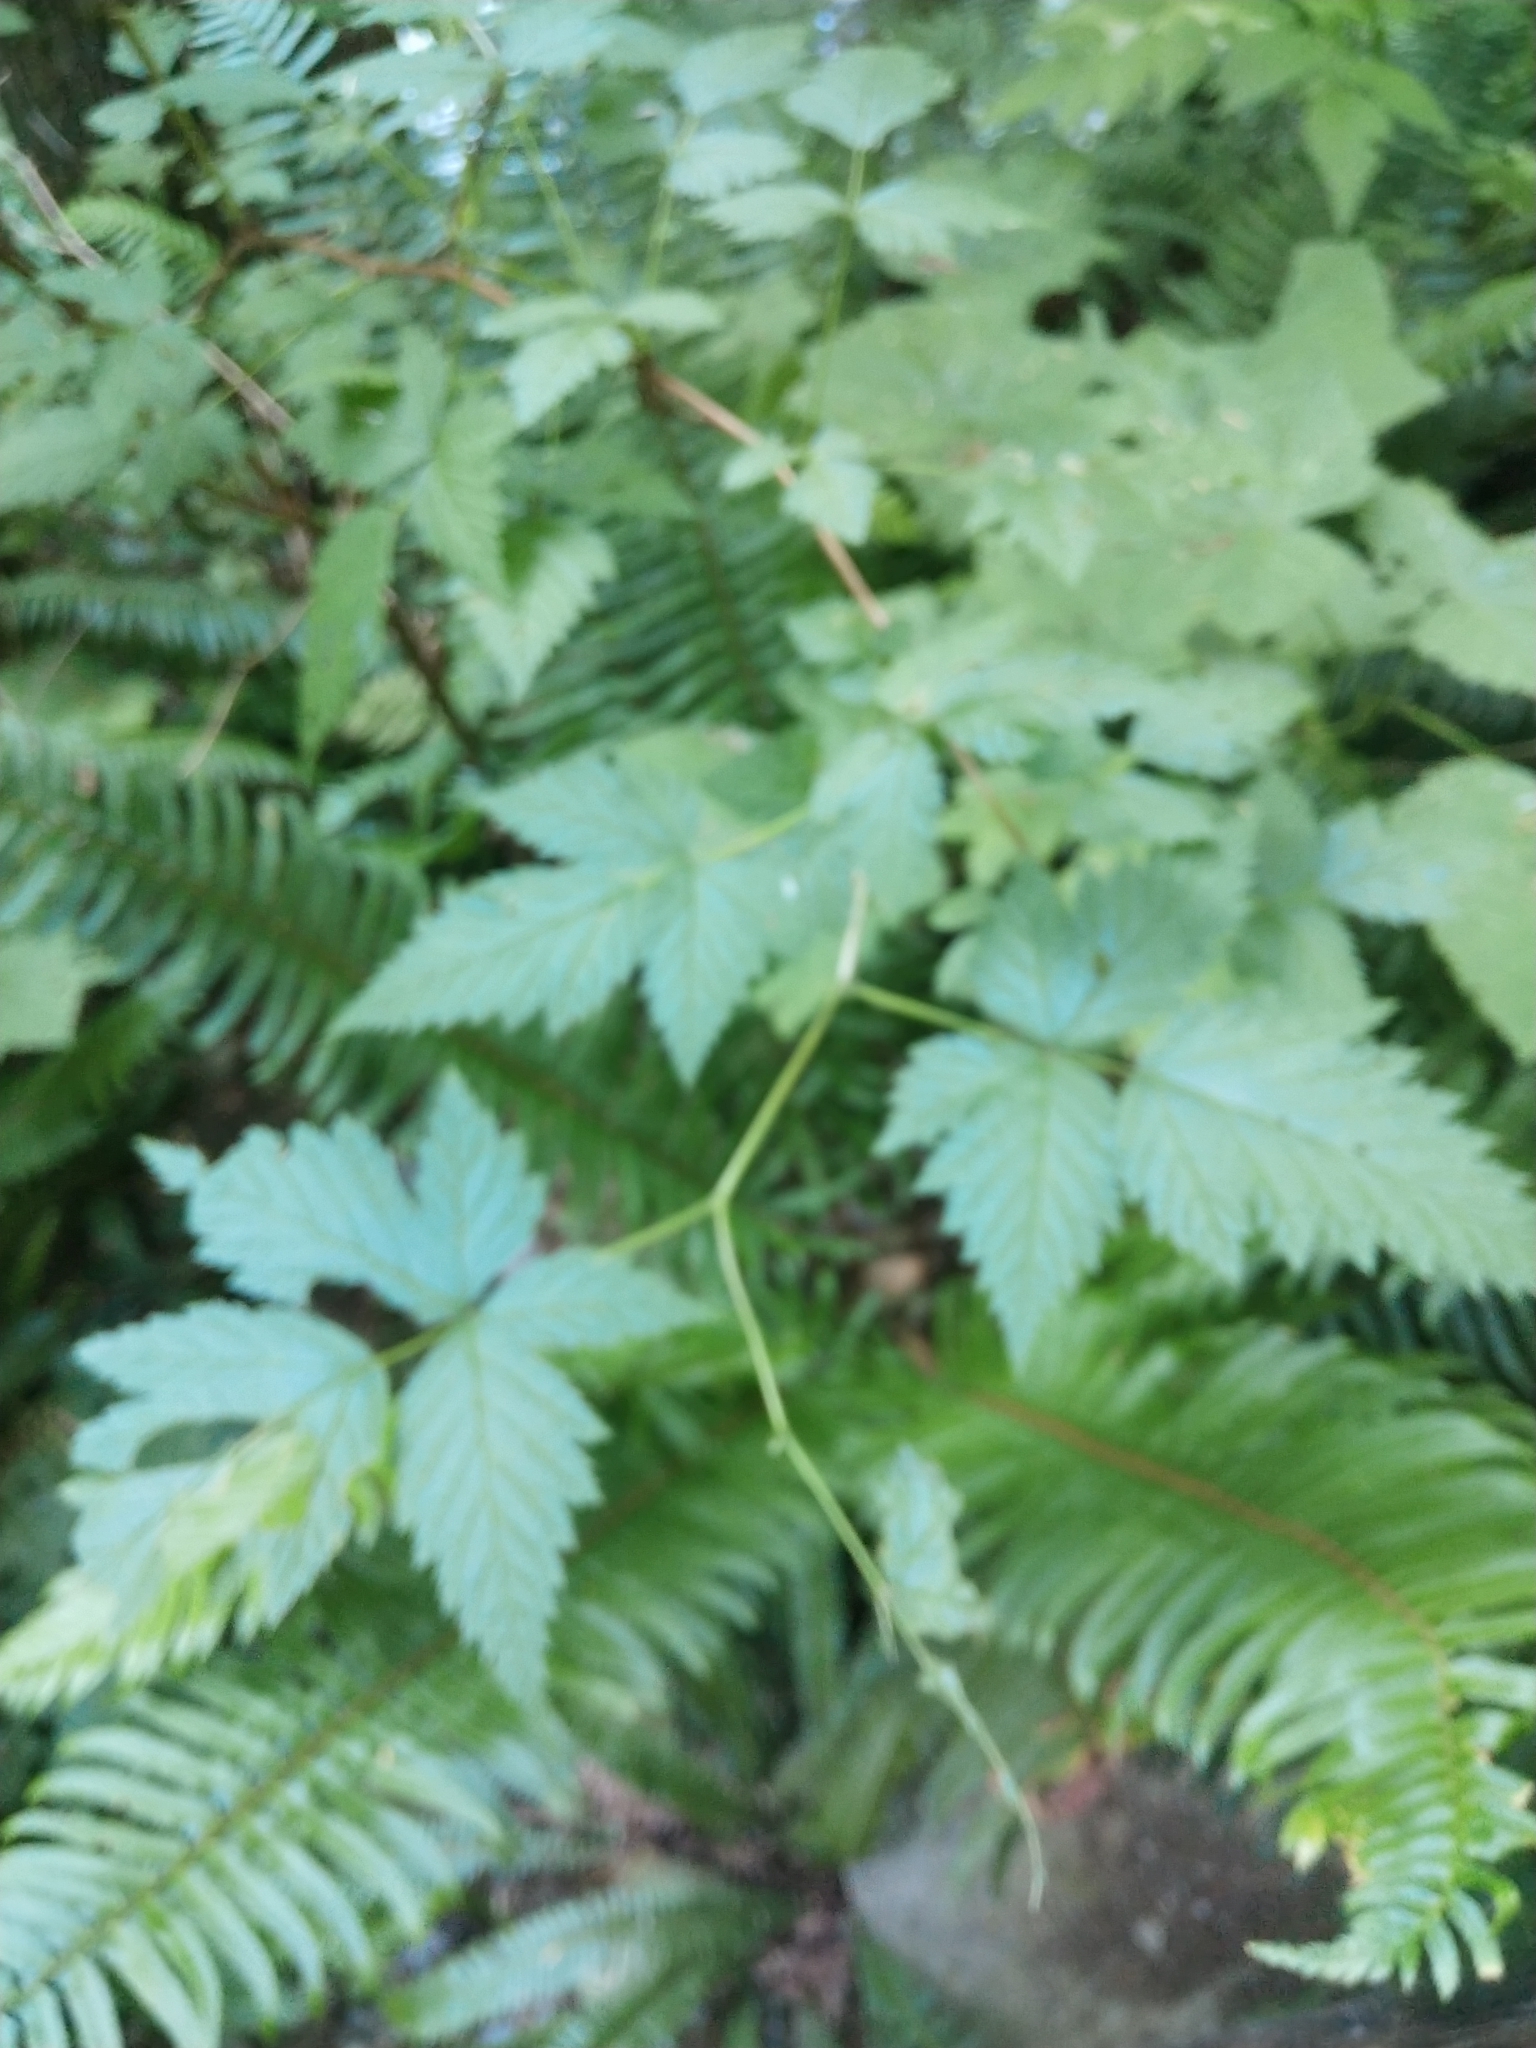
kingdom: Plantae
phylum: Tracheophyta
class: Magnoliopsida
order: Rosales
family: Rosaceae
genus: Rubus
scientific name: Rubus spectabilis
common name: Salmonberry
